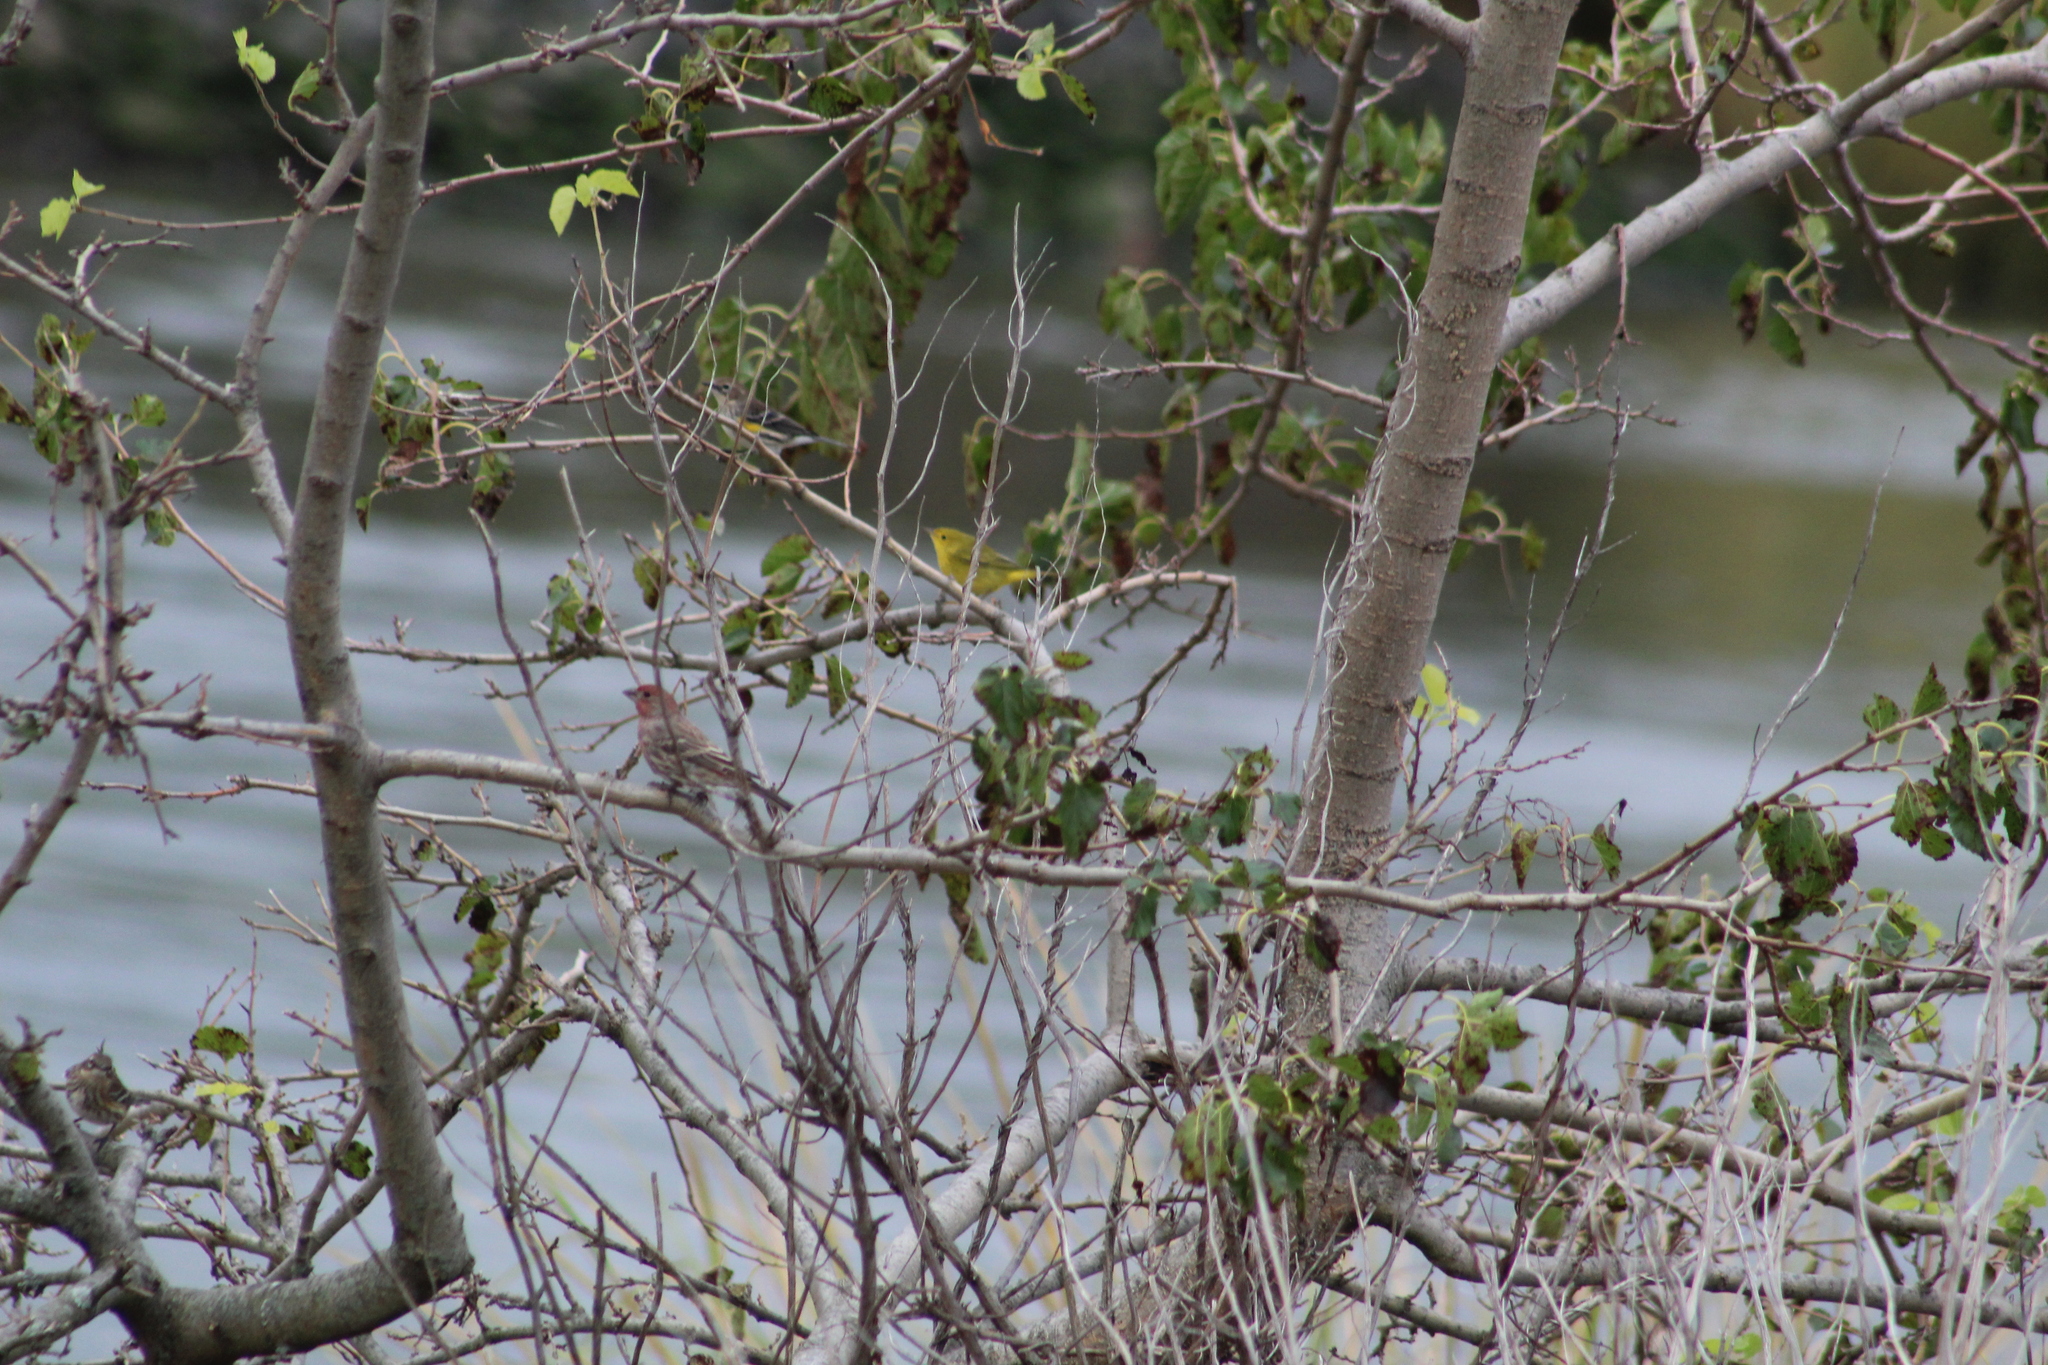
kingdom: Animalia
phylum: Chordata
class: Aves
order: Passeriformes
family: Parulidae
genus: Setophaga
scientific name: Setophaga petechia
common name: Yellow warbler
